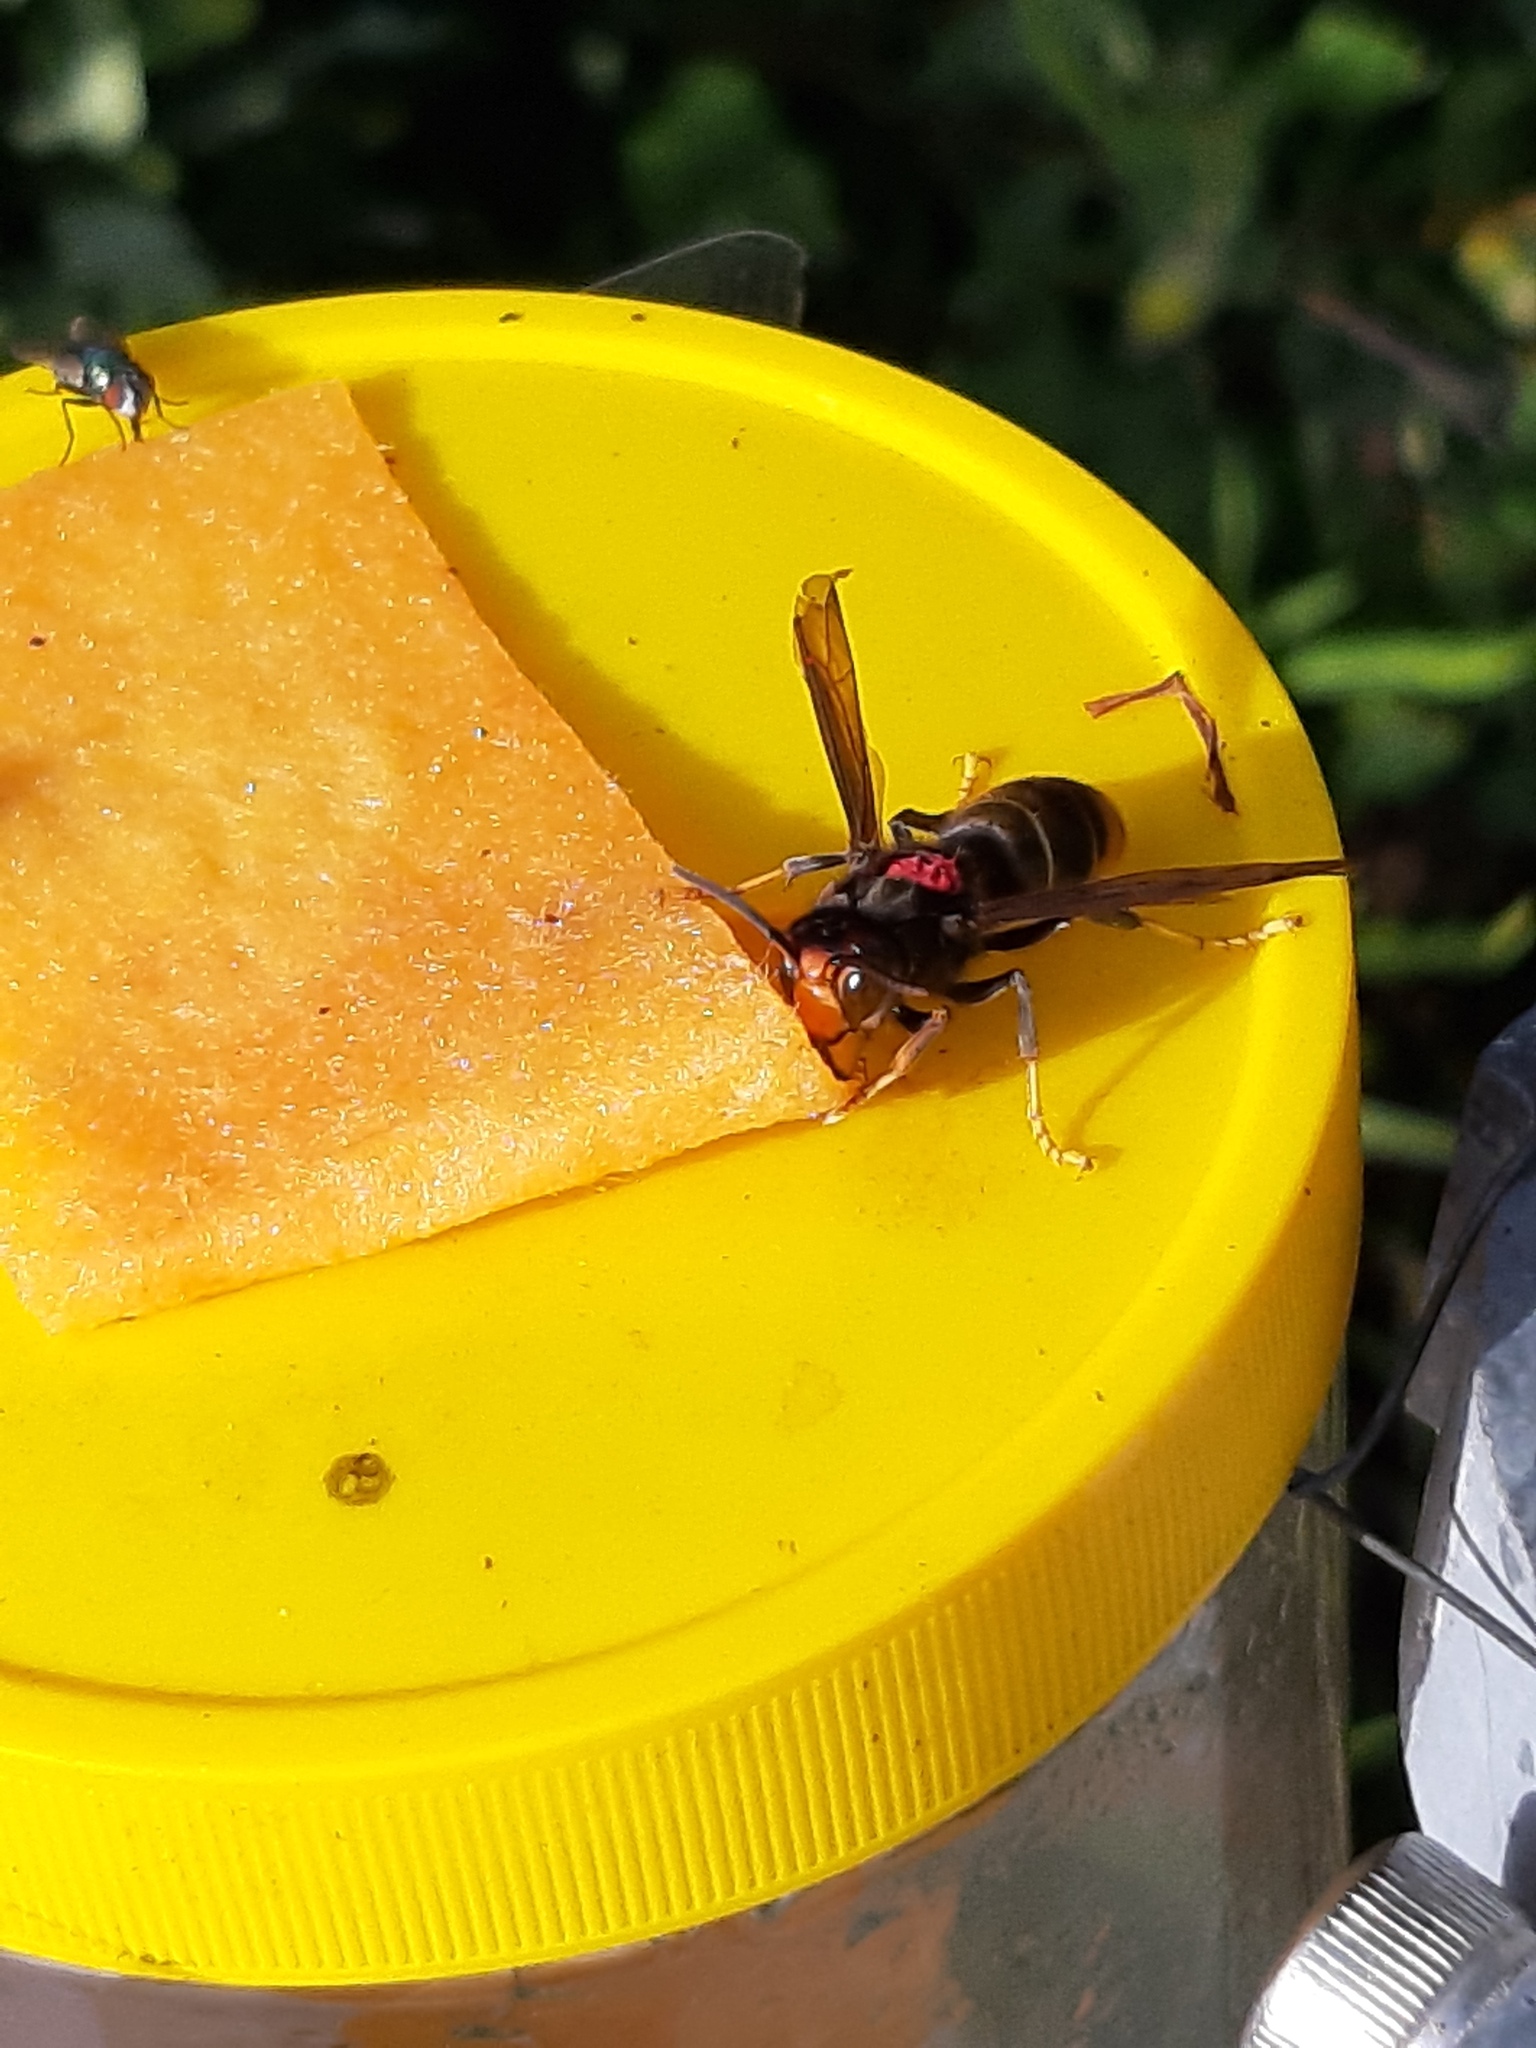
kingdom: Animalia
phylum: Arthropoda
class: Insecta
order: Hymenoptera
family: Vespidae
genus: Vespa
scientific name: Vespa velutina
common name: Asian hornet
